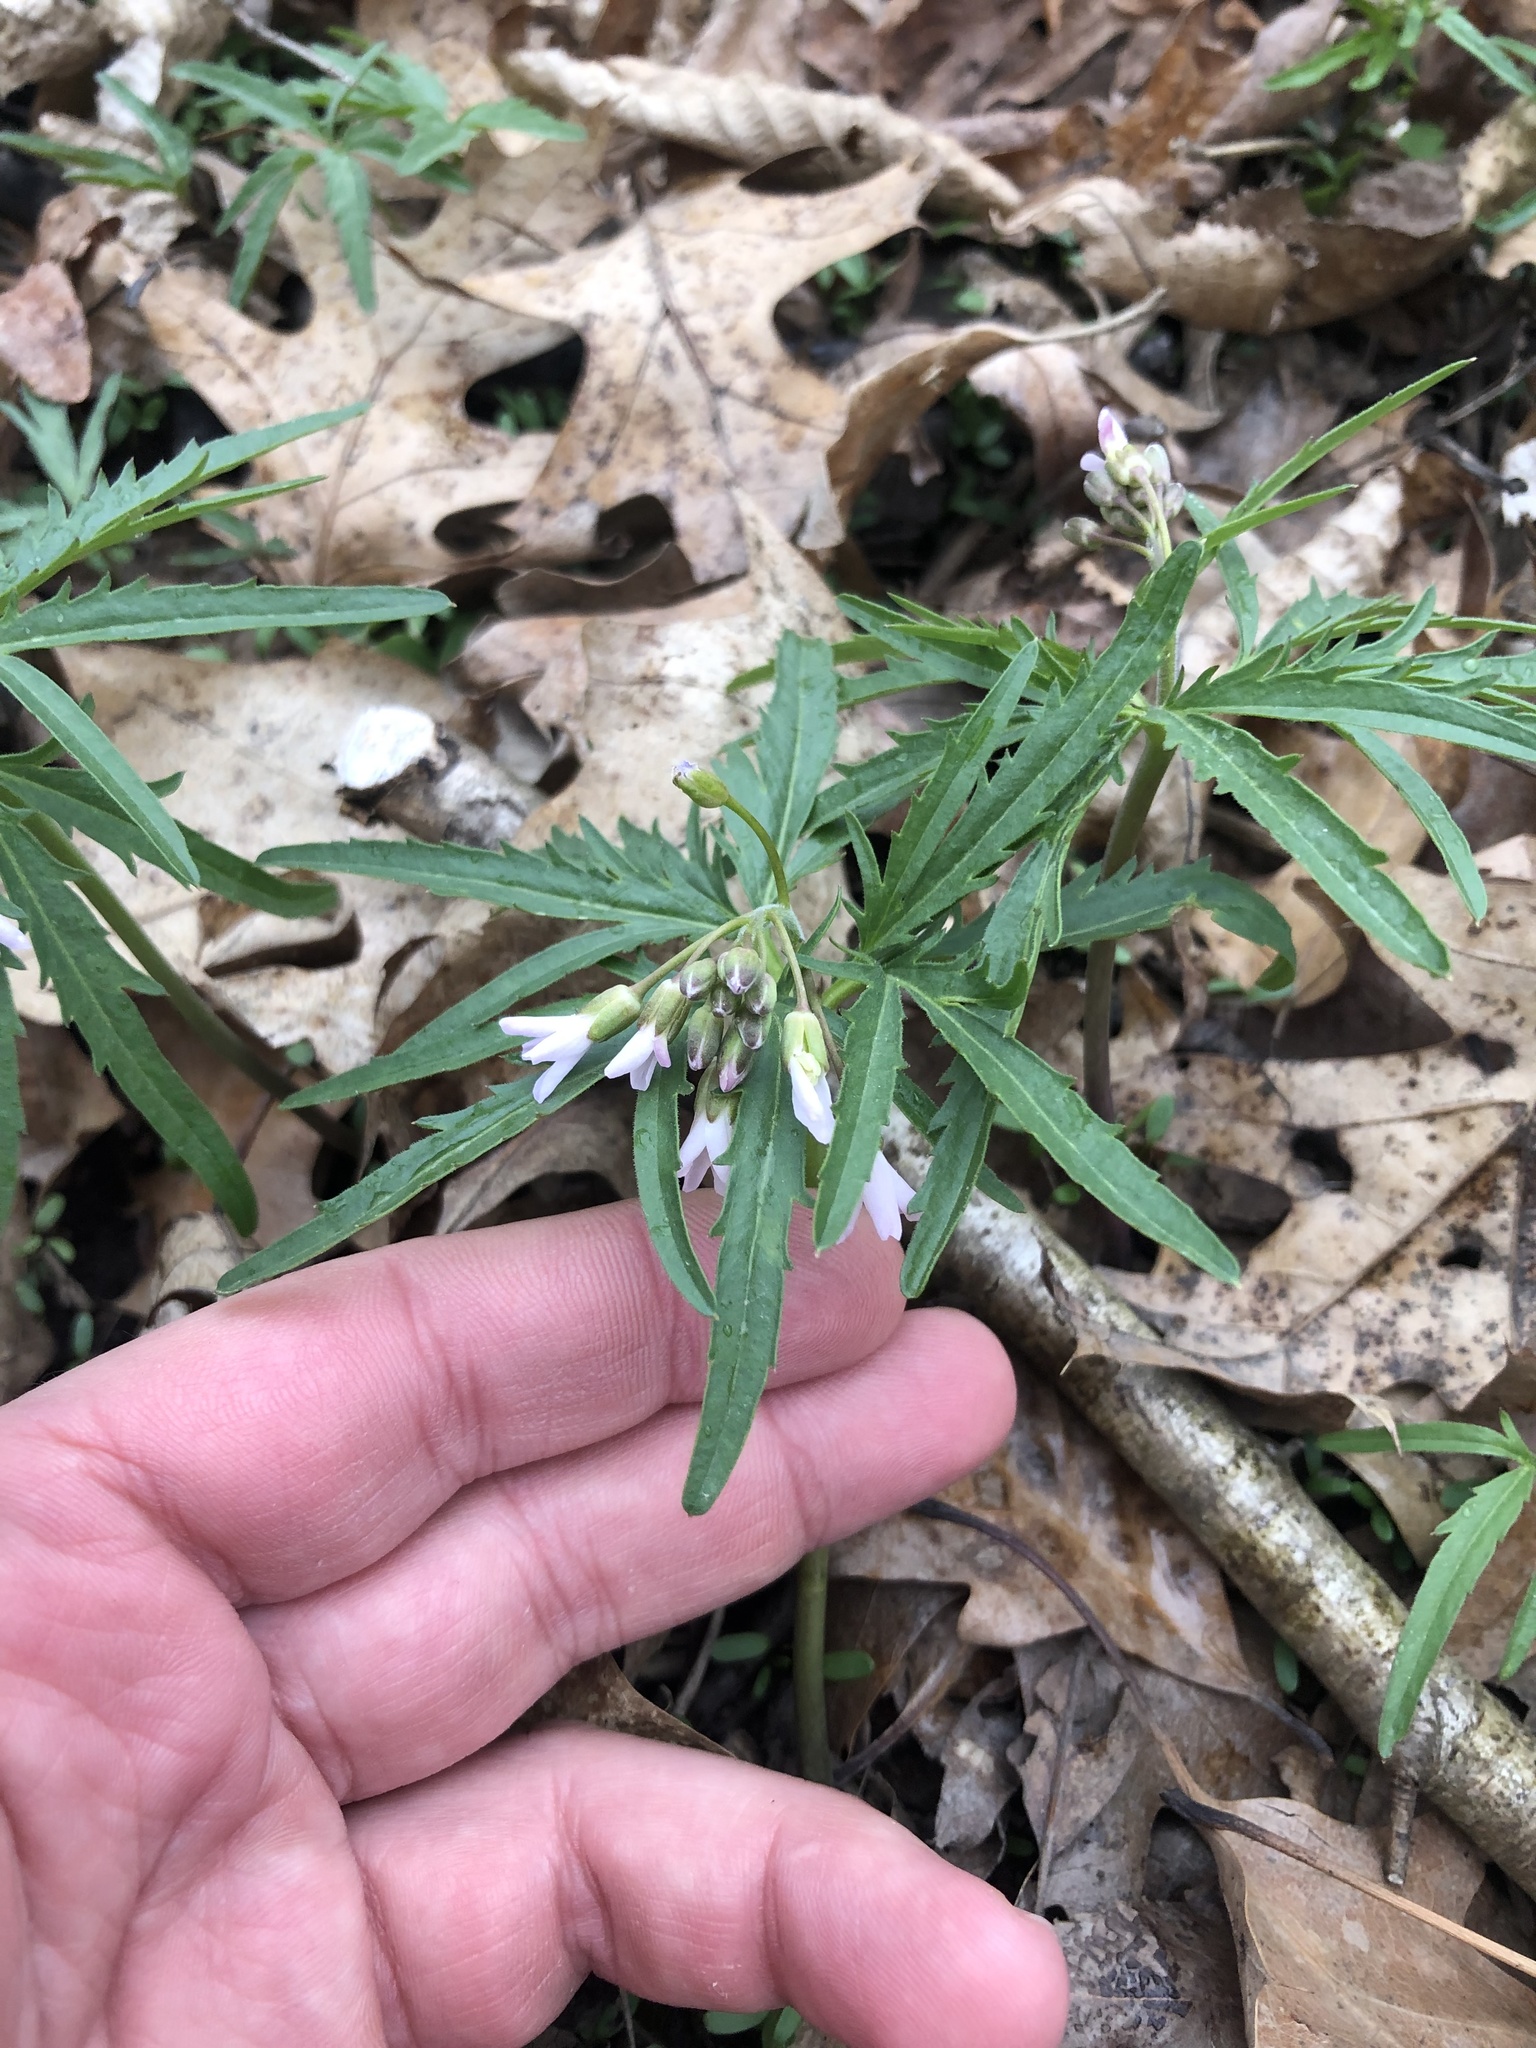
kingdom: Plantae
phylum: Tracheophyta
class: Magnoliopsida
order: Brassicales
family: Brassicaceae
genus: Cardamine
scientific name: Cardamine concatenata
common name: Cut-leaf toothcup
